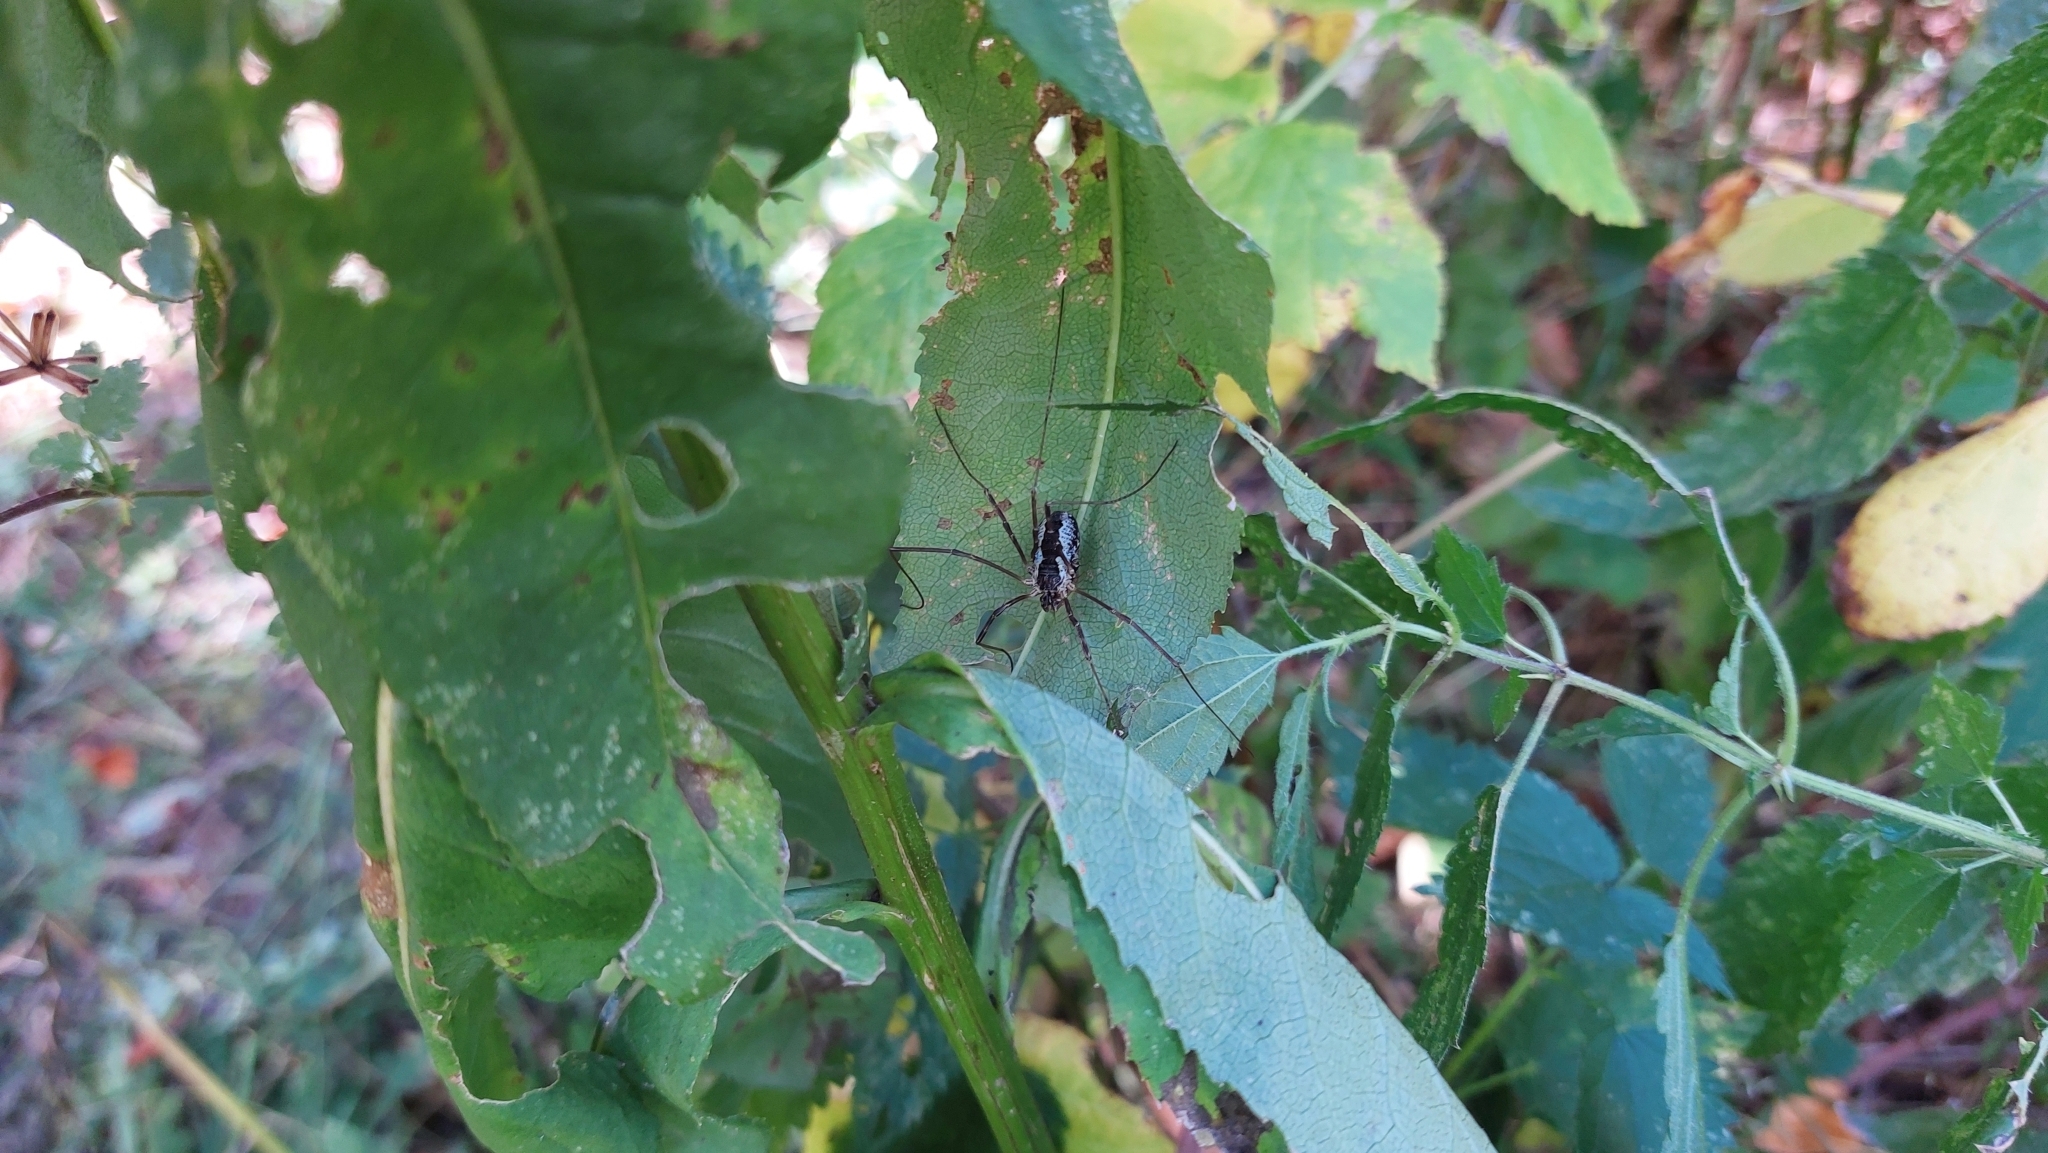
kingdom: Animalia
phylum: Arthropoda
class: Arachnida
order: Opiliones
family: Phalangiidae
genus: Mitopus
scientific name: Mitopus morio
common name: Saddleback harvestman
